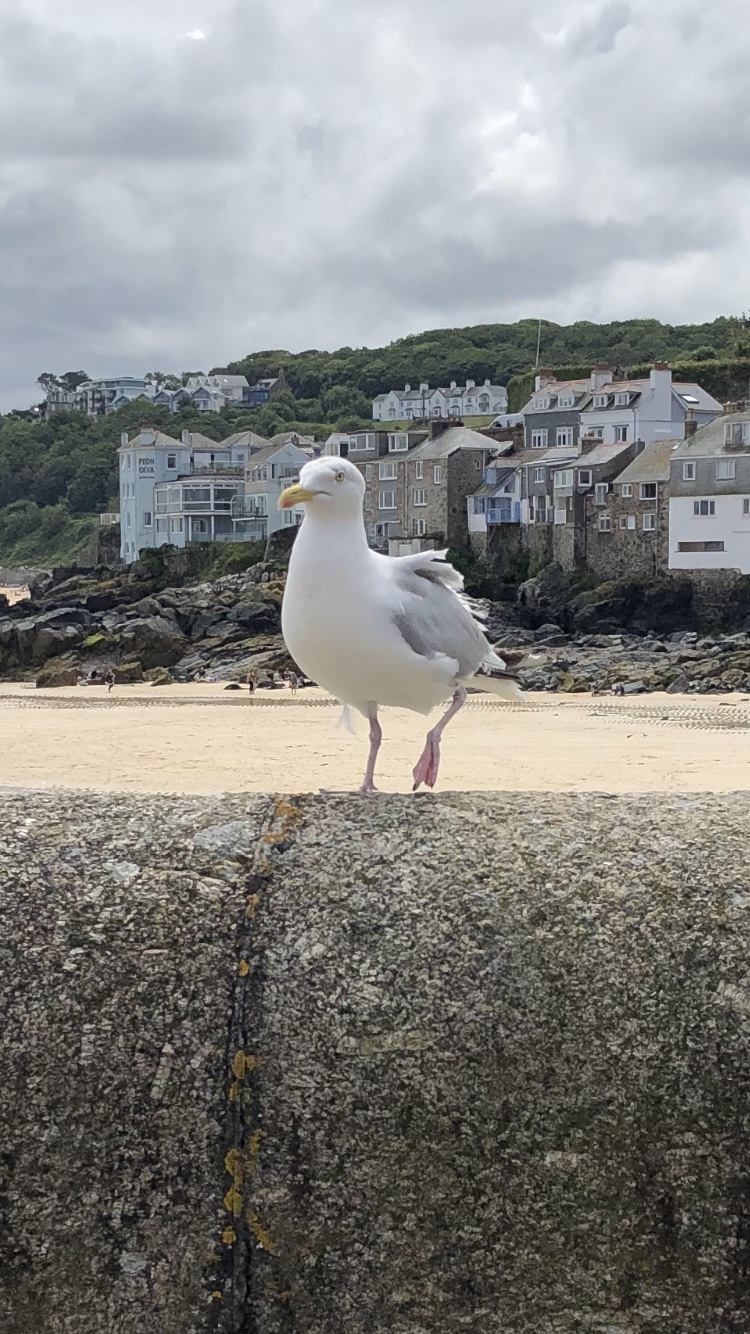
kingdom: Animalia
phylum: Chordata
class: Aves
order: Charadriiformes
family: Laridae
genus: Larus
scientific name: Larus argentatus
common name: Herring gull
